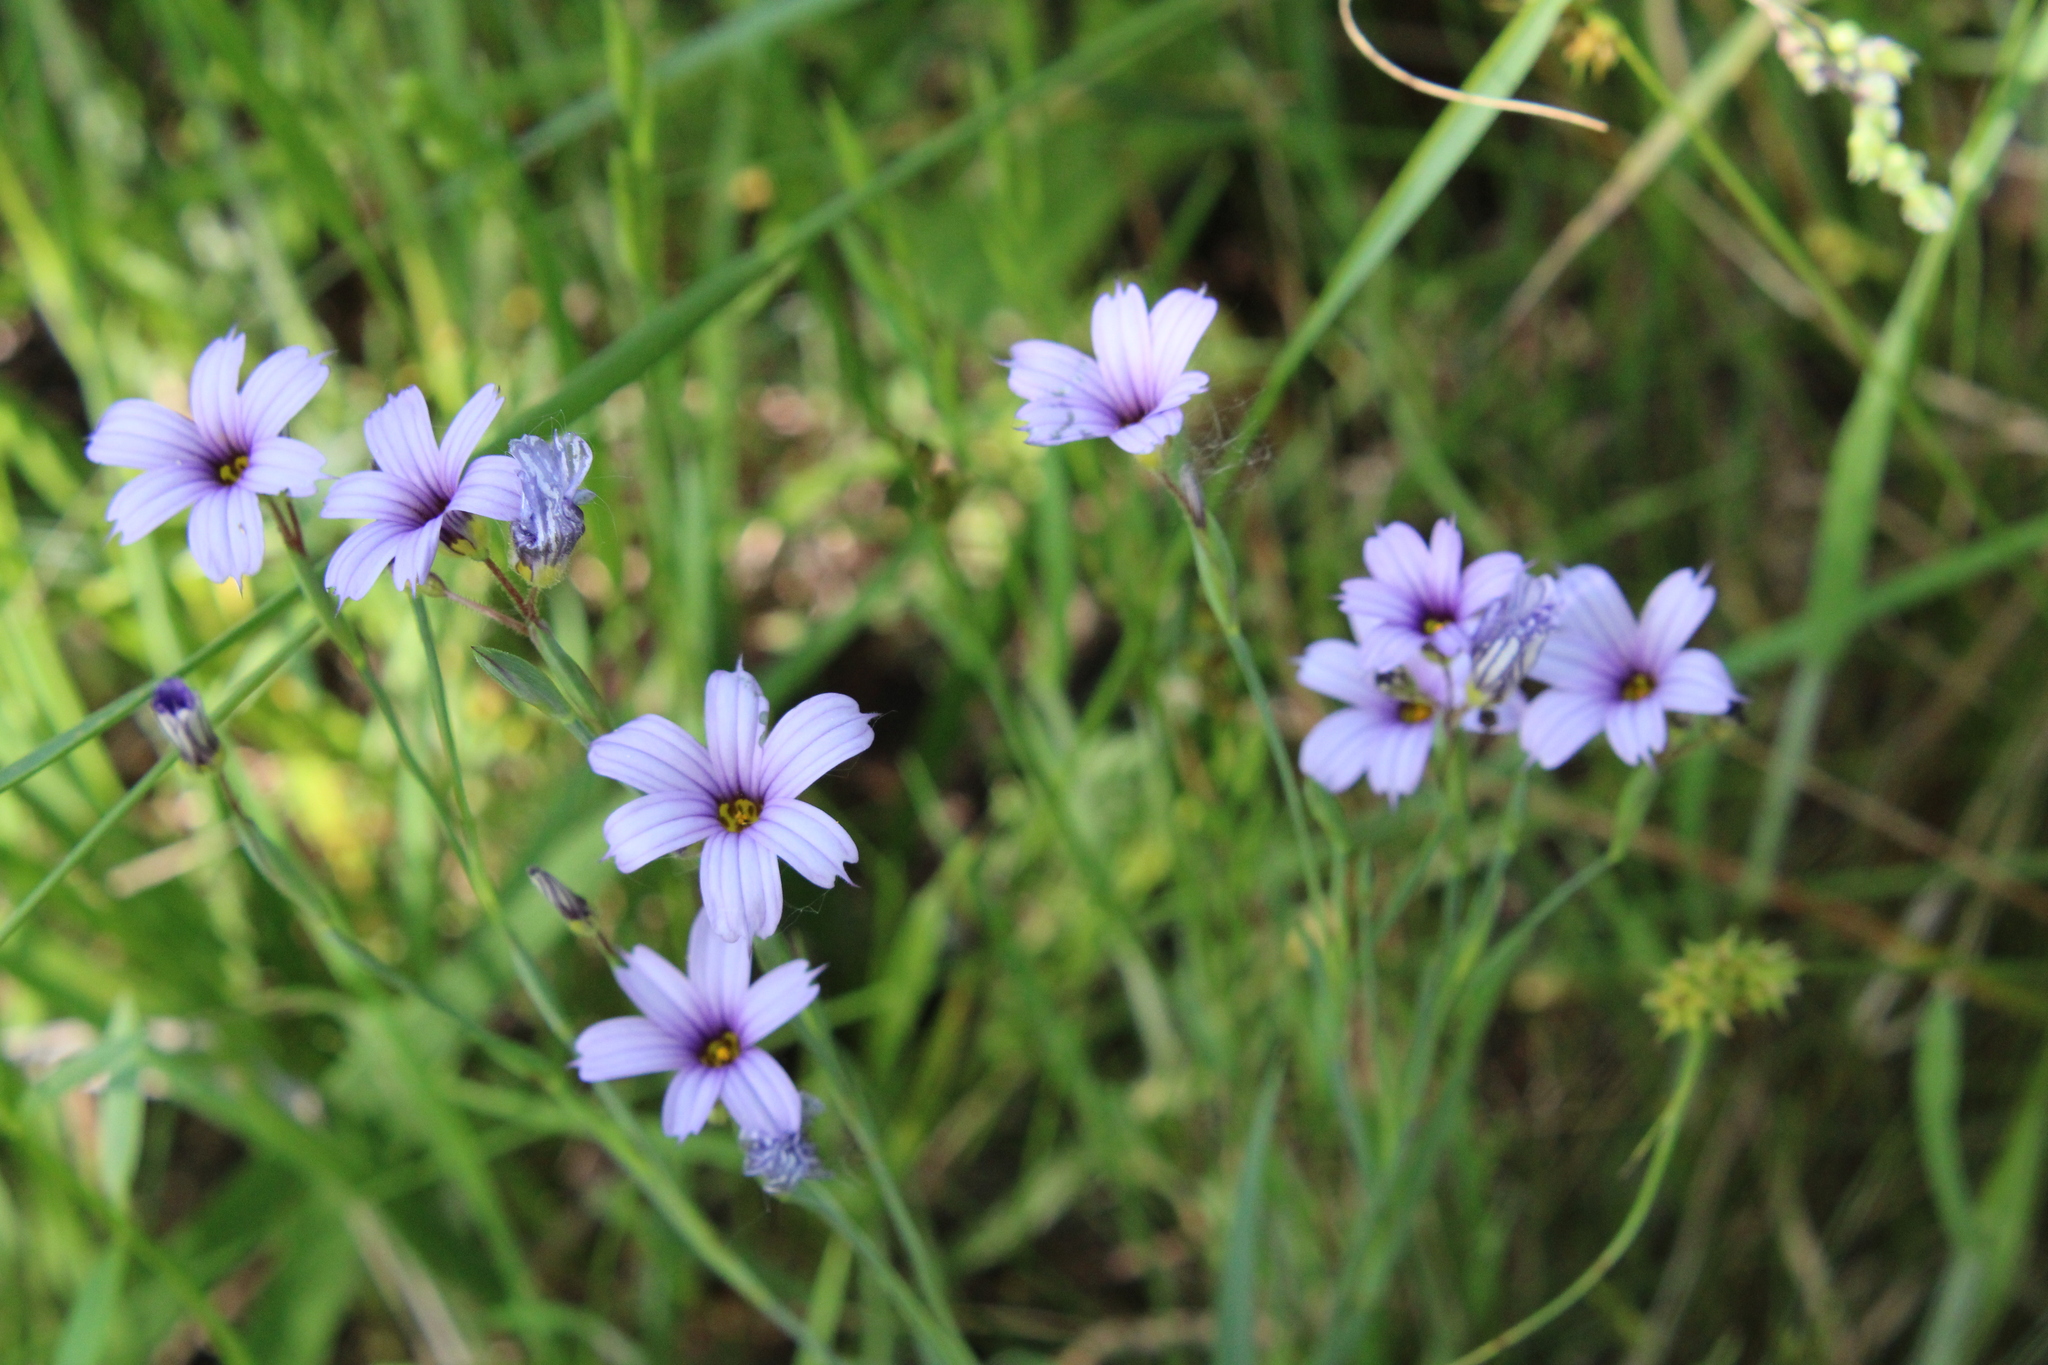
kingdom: Plantae
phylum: Tracheophyta
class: Liliopsida
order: Asparagales
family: Iridaceae
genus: Sisyrinchium
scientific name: Sisyrinchium platense
